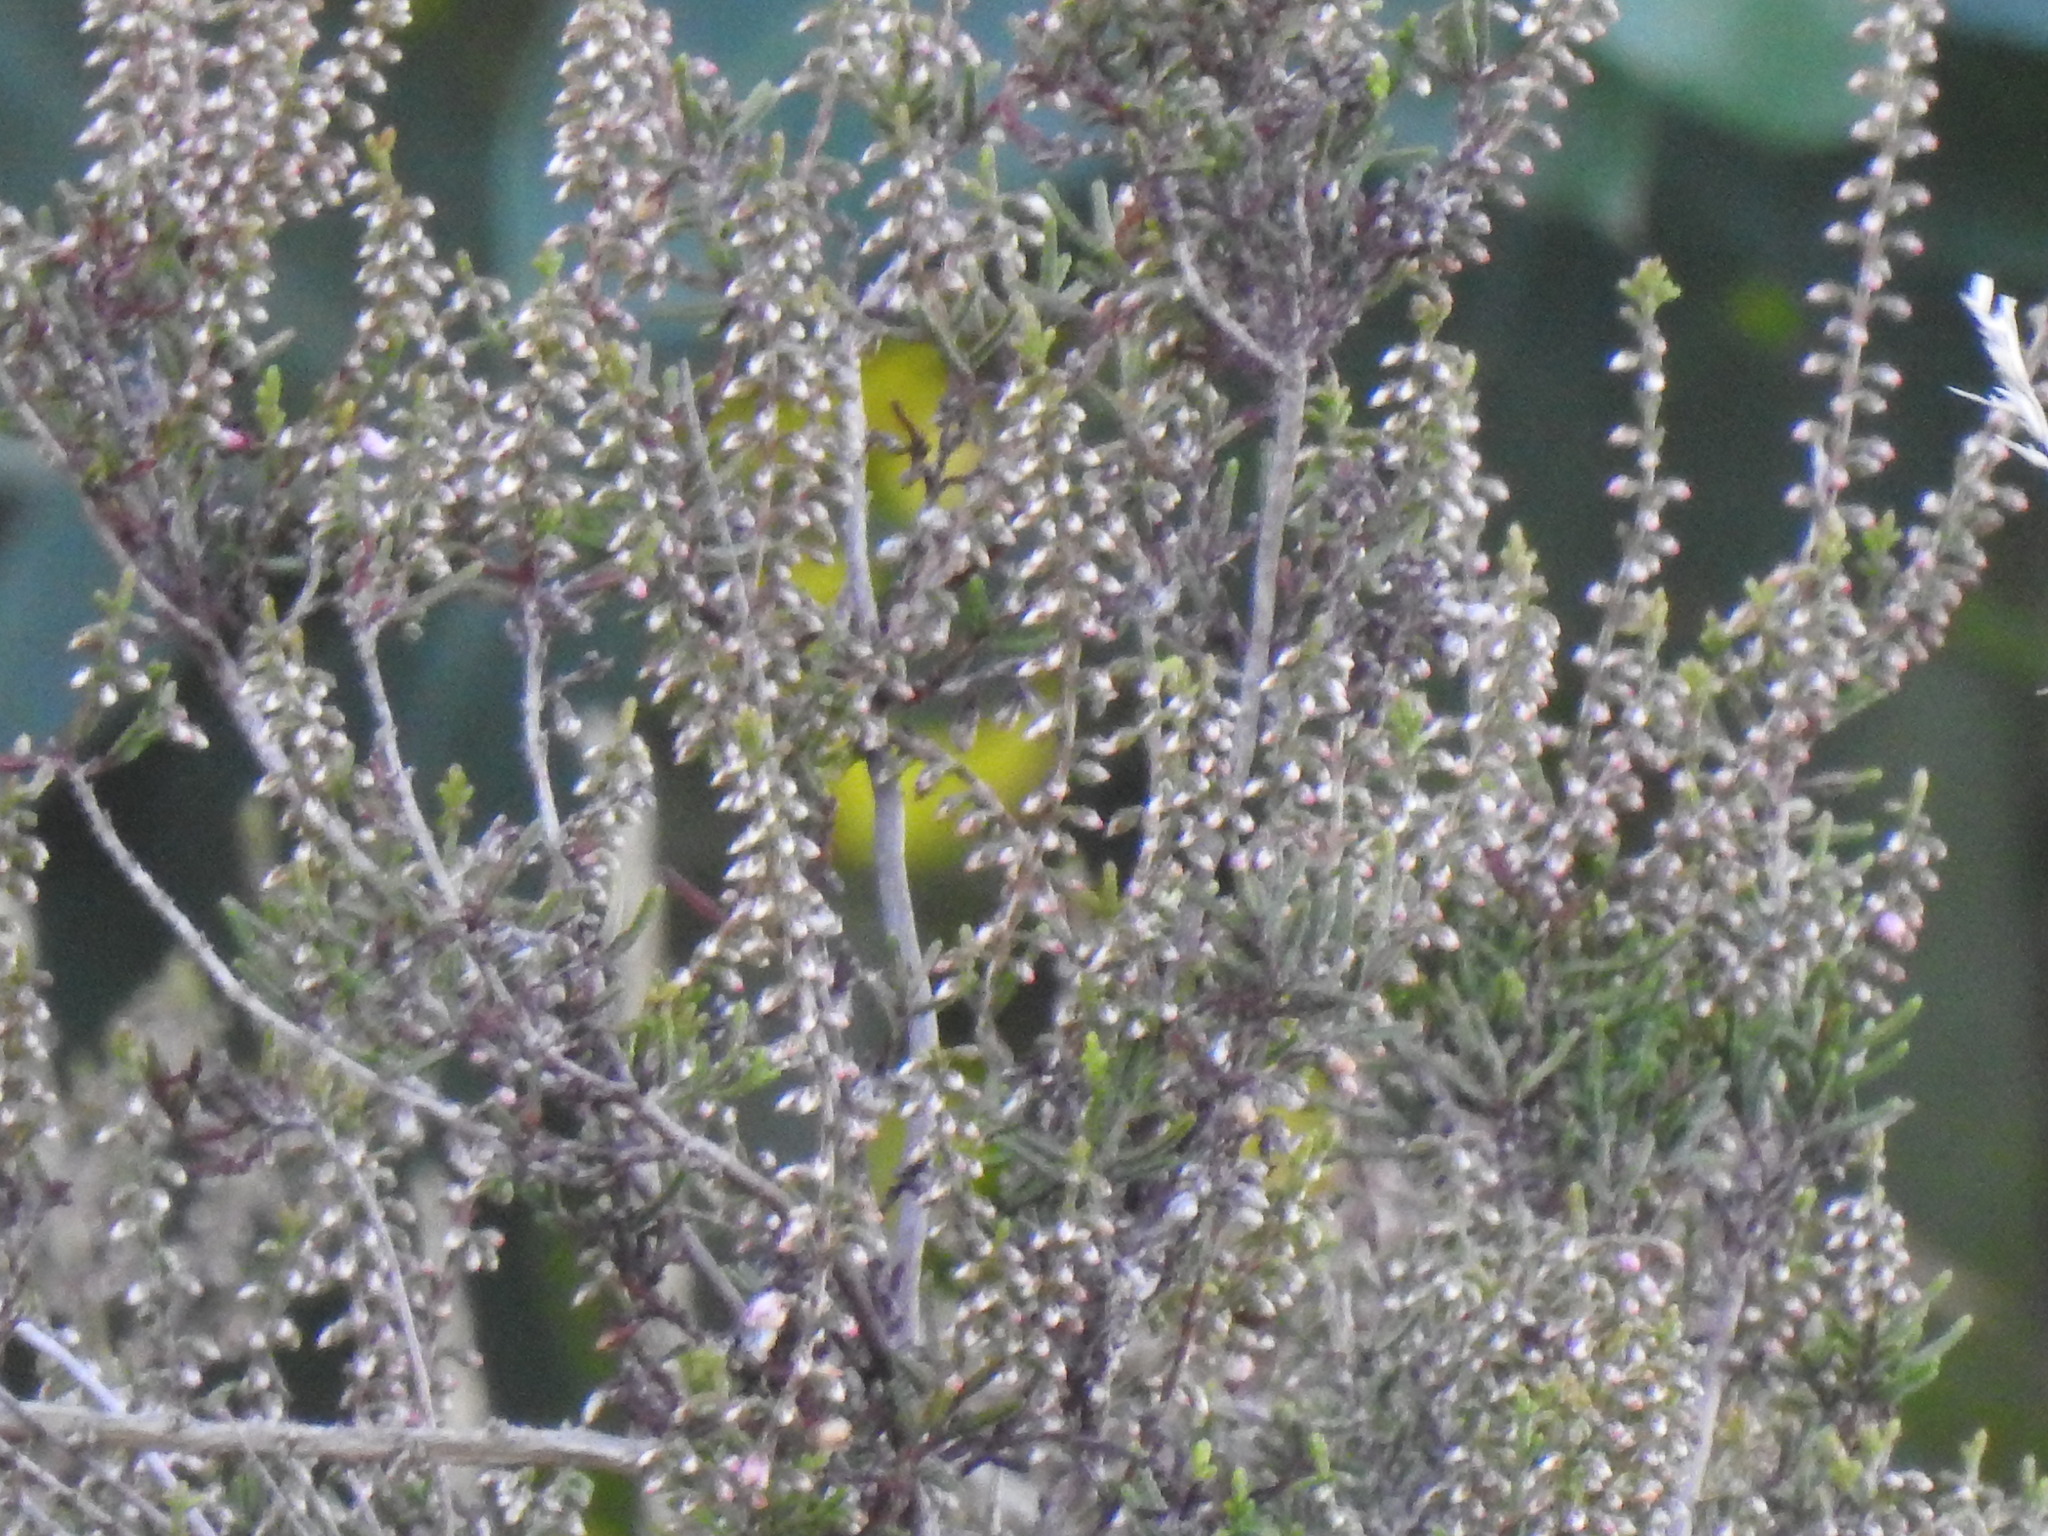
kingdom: Plantae
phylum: Tracheophyta
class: Magnoliopsida
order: Ericales
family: Ericaceae
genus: Calluna
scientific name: Calluna vulgaris
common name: Heather
